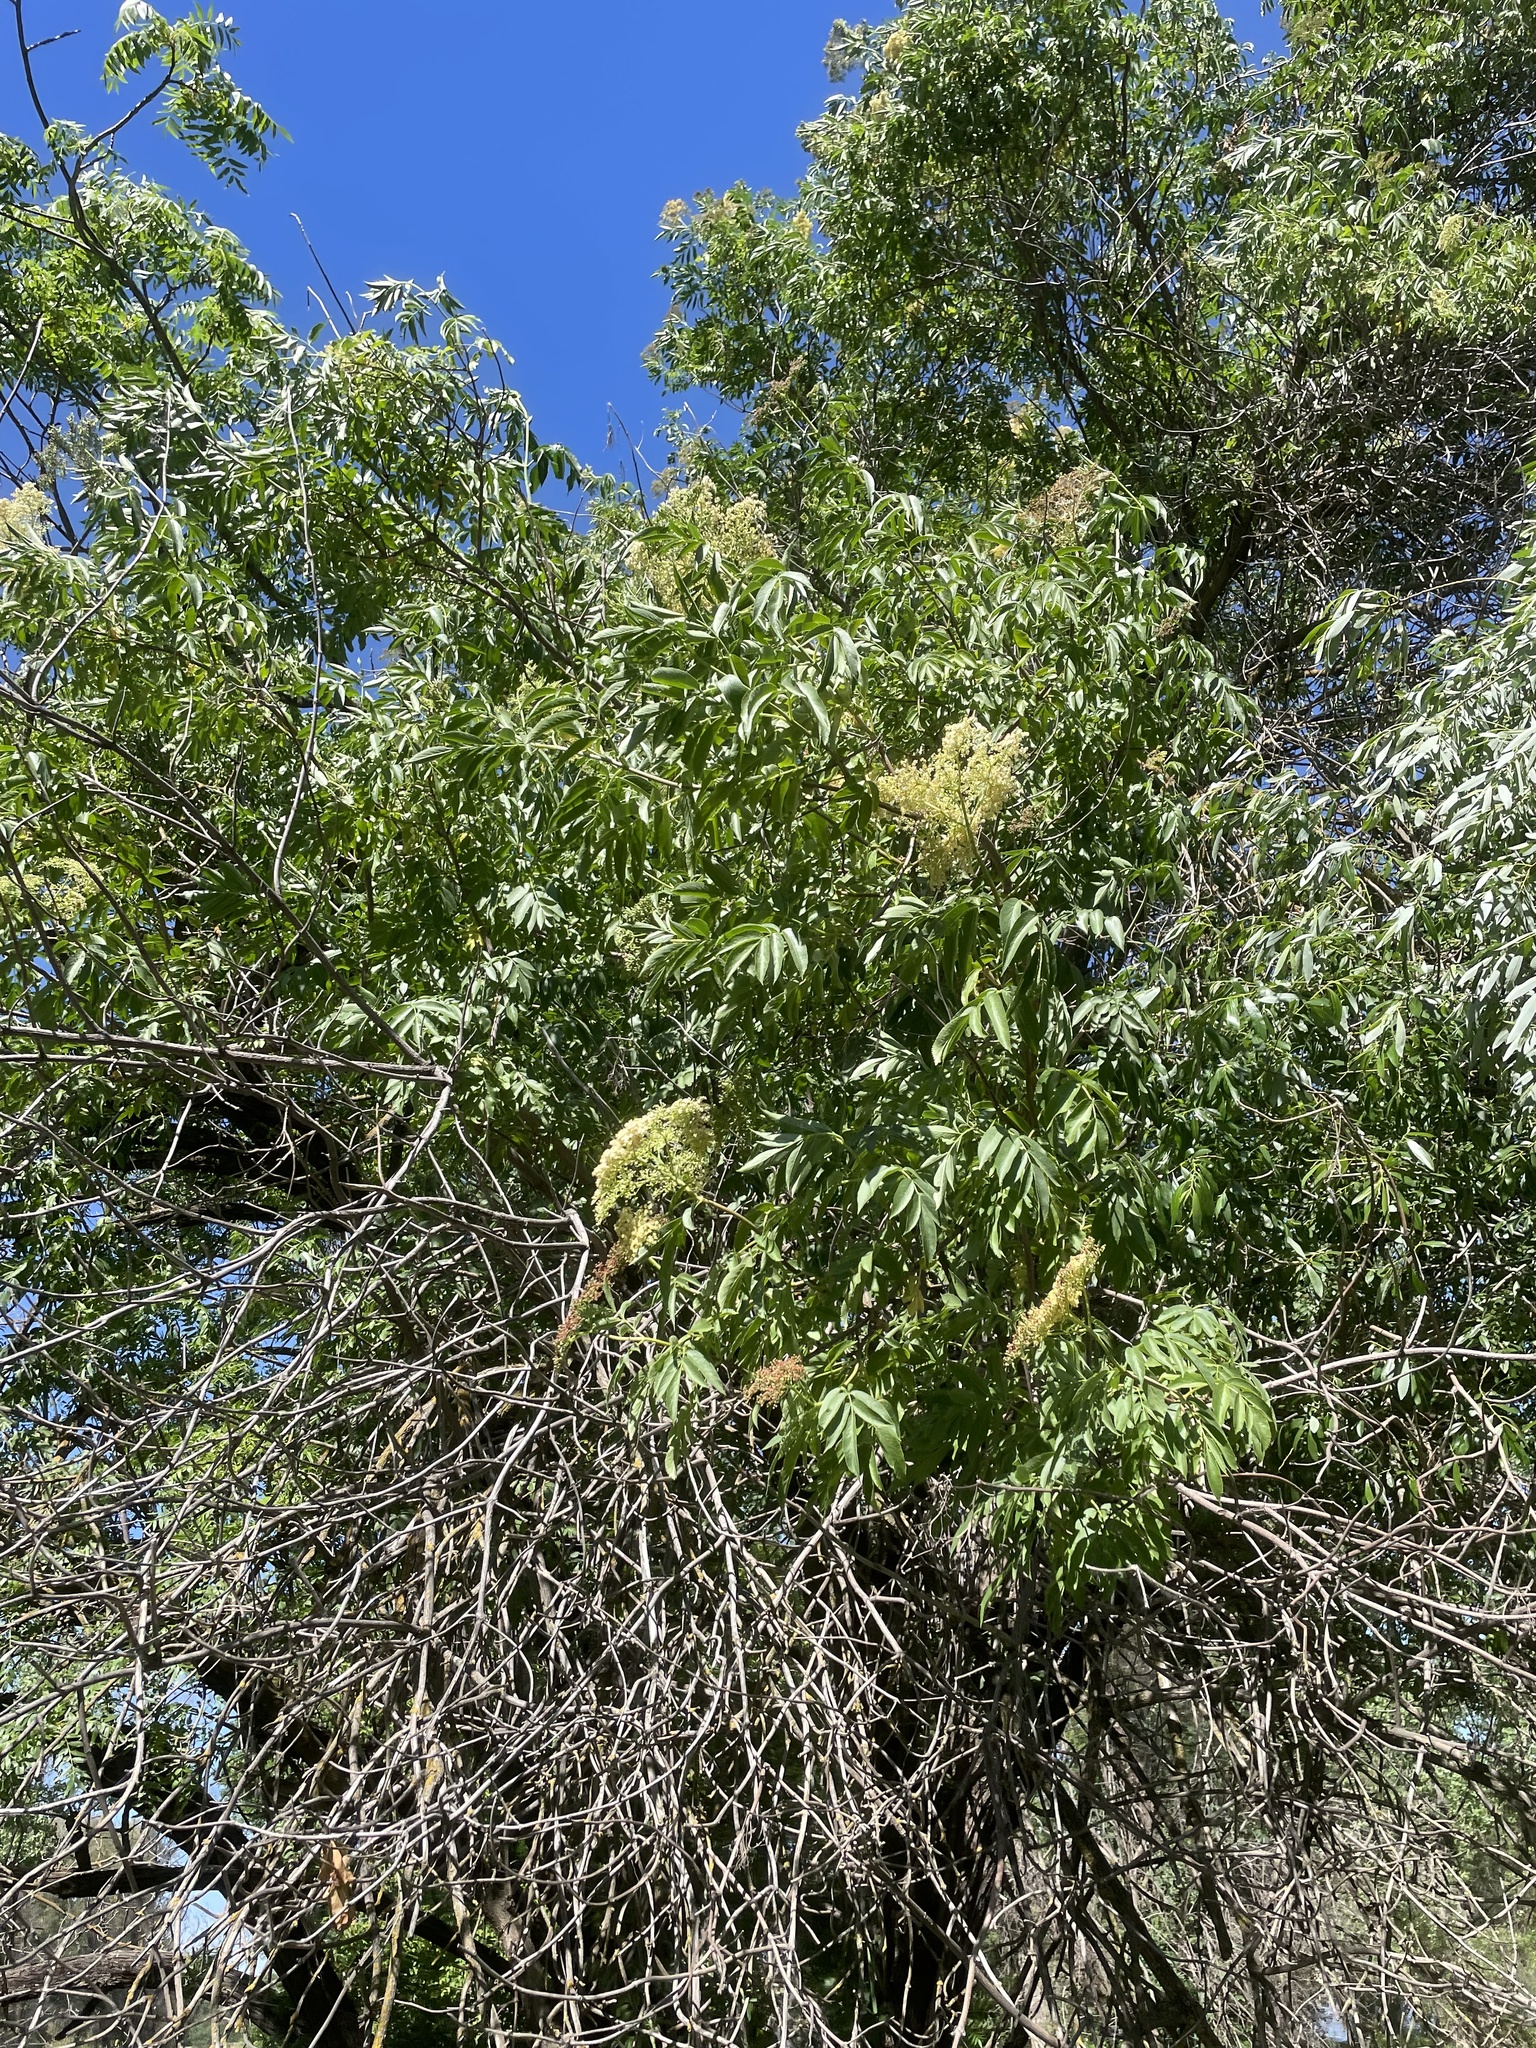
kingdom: Plantae
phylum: Tracheophyta
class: Magnoliopsida
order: Dipsacales
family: Viburnaceae
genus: Sambucus
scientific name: Sambucus cerulea
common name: Blue elder
